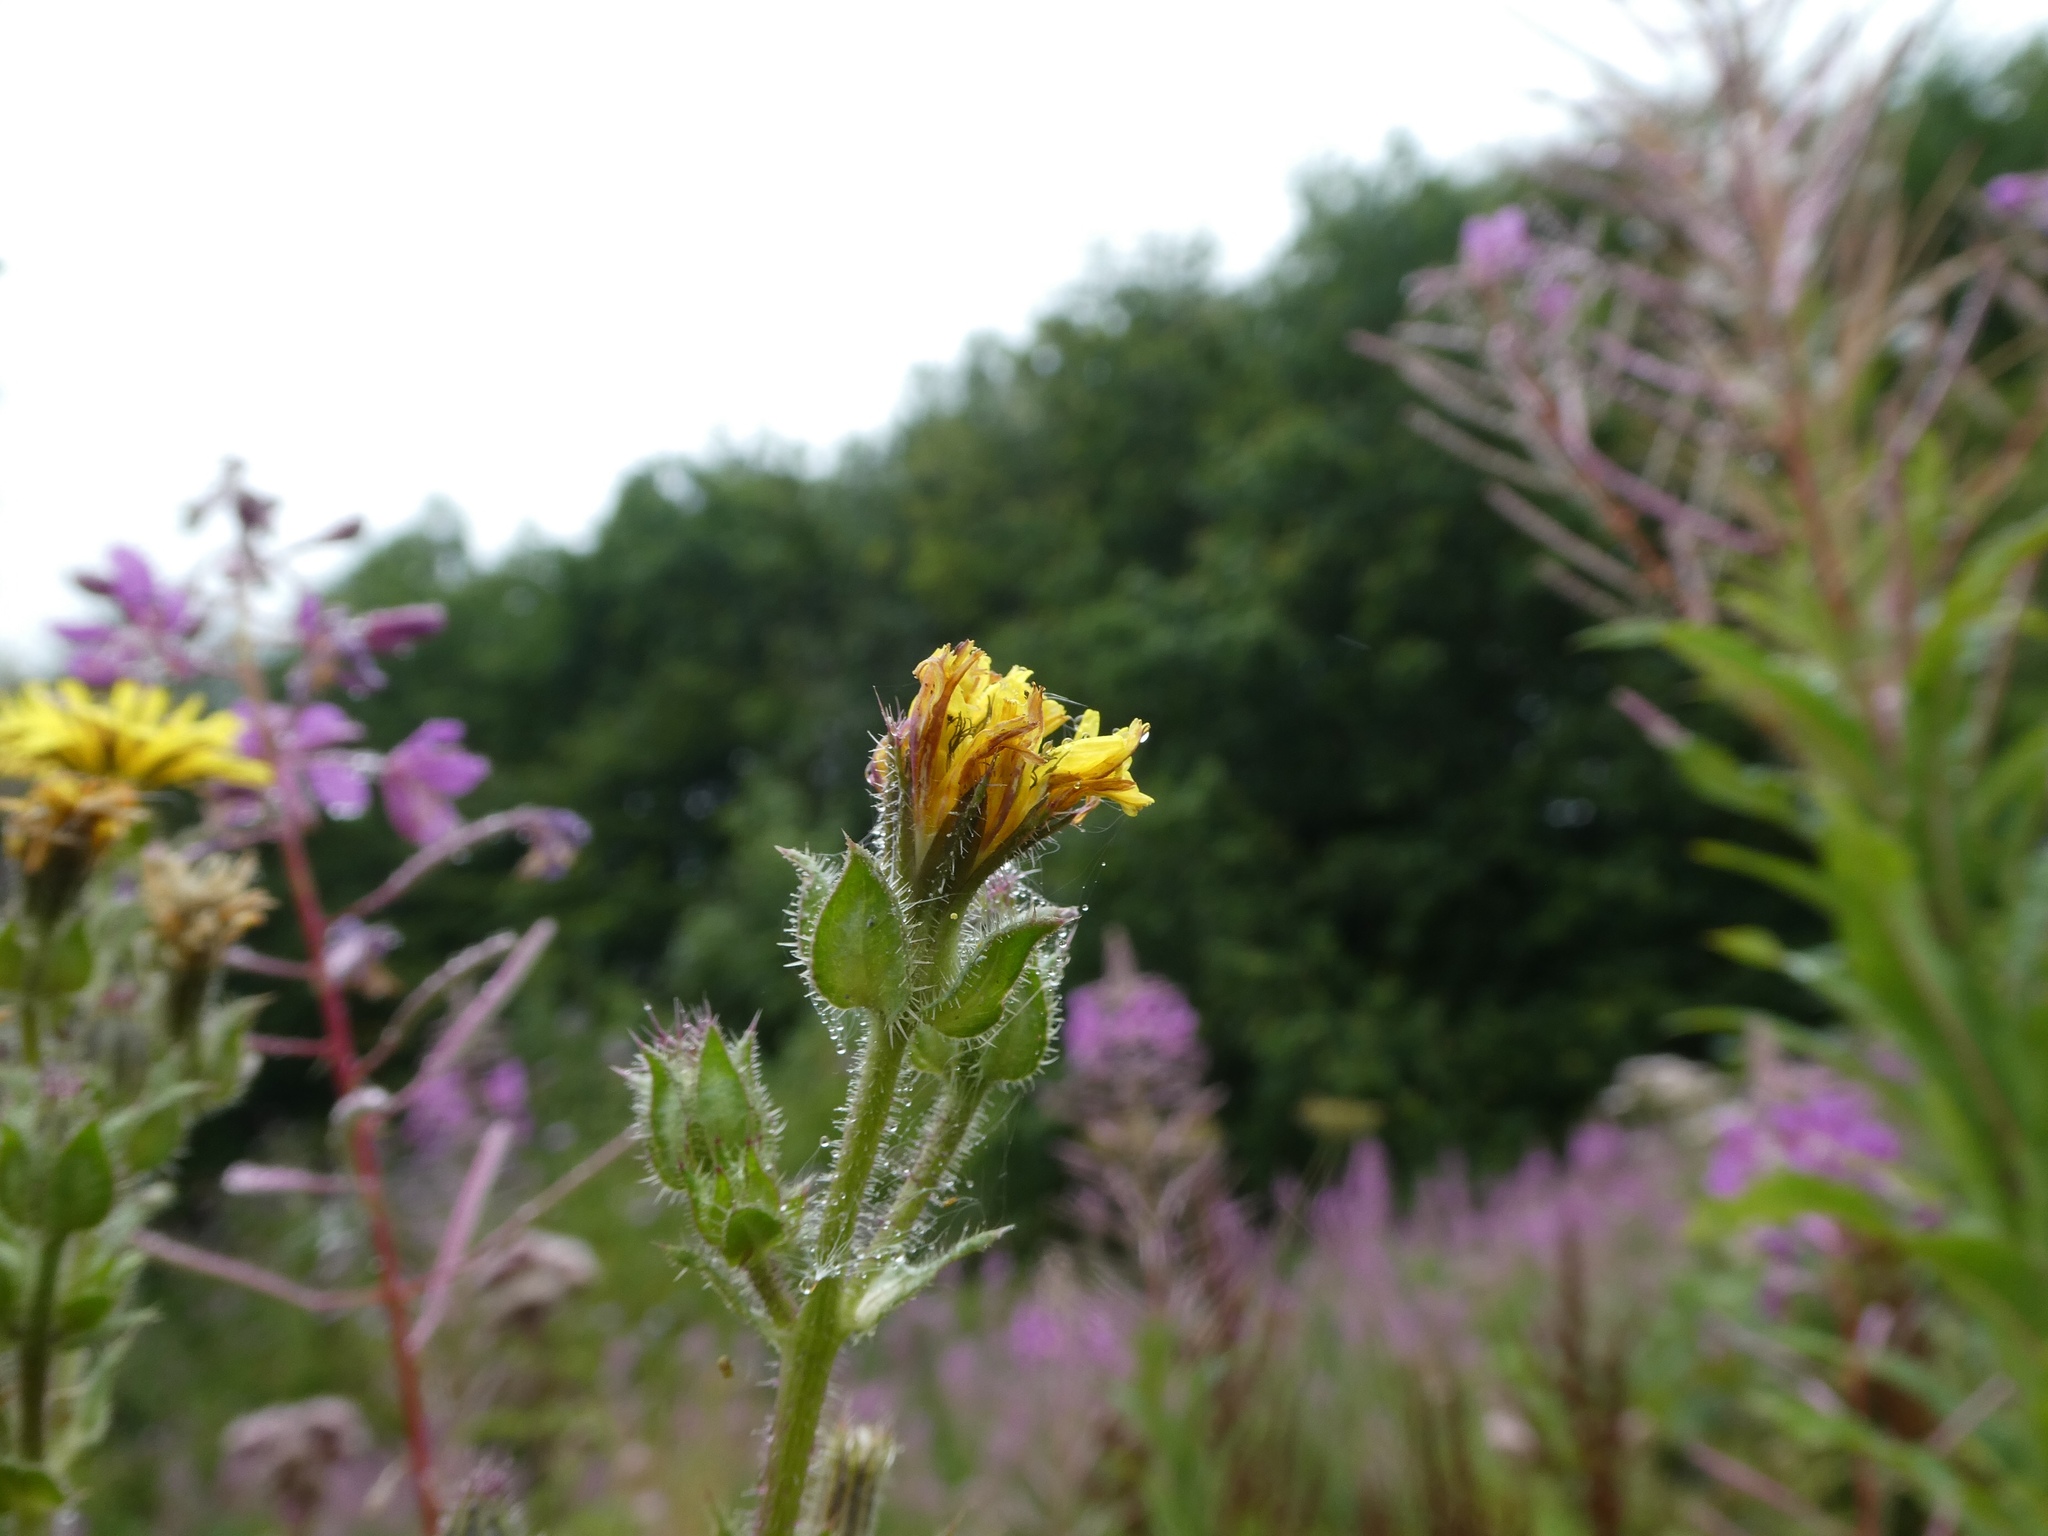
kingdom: Plantae
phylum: Tracheophyta
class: Magnoliopsida
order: Asterales
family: Asteraceae
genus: Helminthotheca
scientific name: Helminthotheca echioides
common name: Ox-tongue
